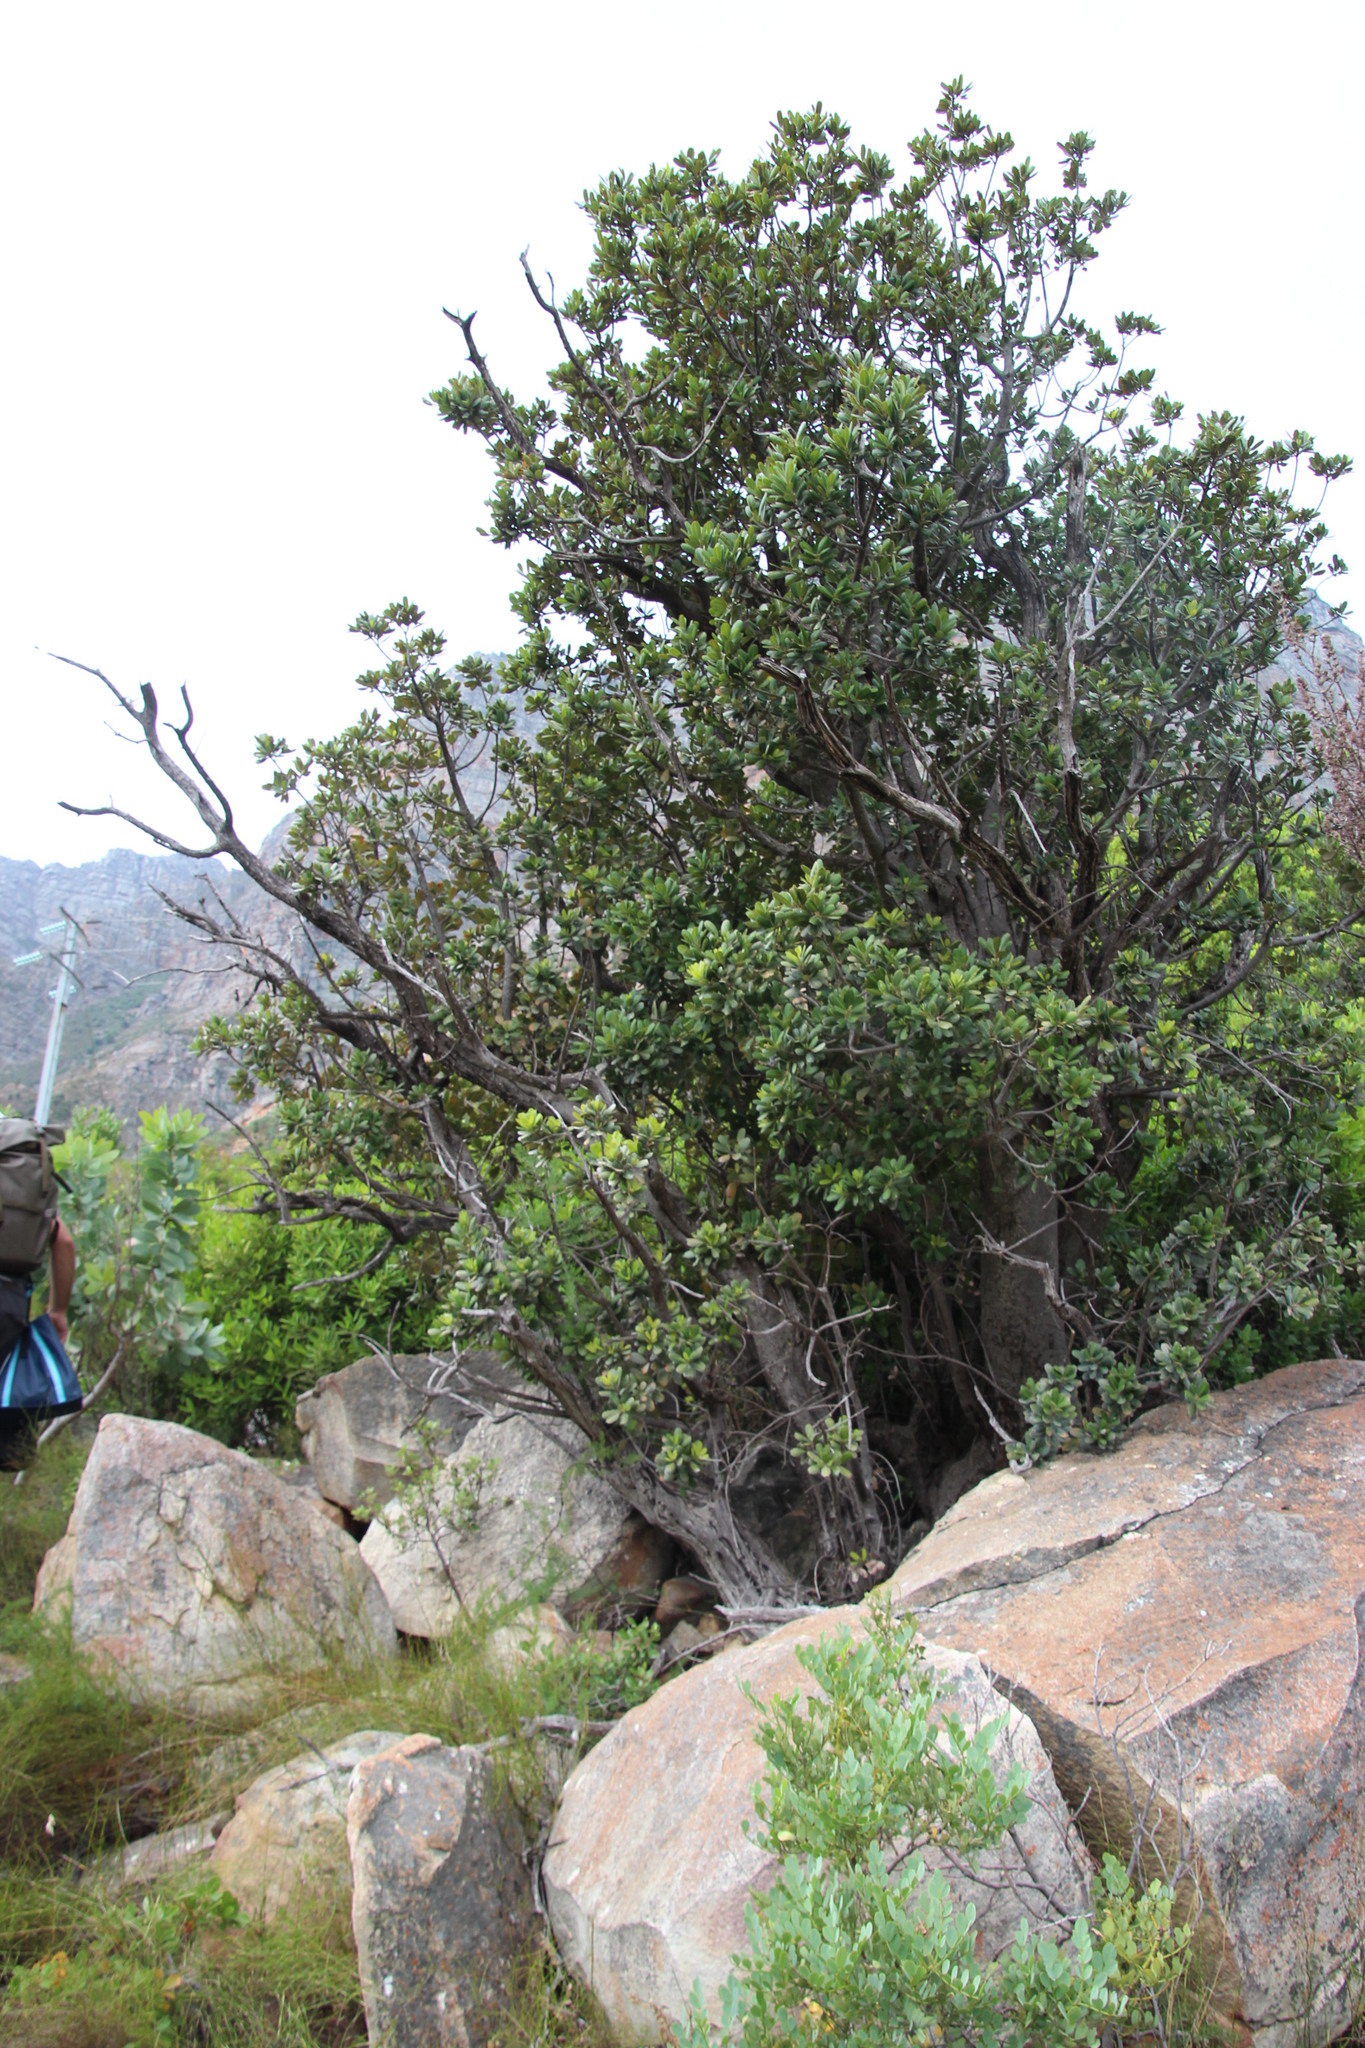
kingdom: Plantae
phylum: Tracheophyta
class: Magnoliopsida
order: Sapindales
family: Anacardiaceae
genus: Heeria
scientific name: Heeria argentea
